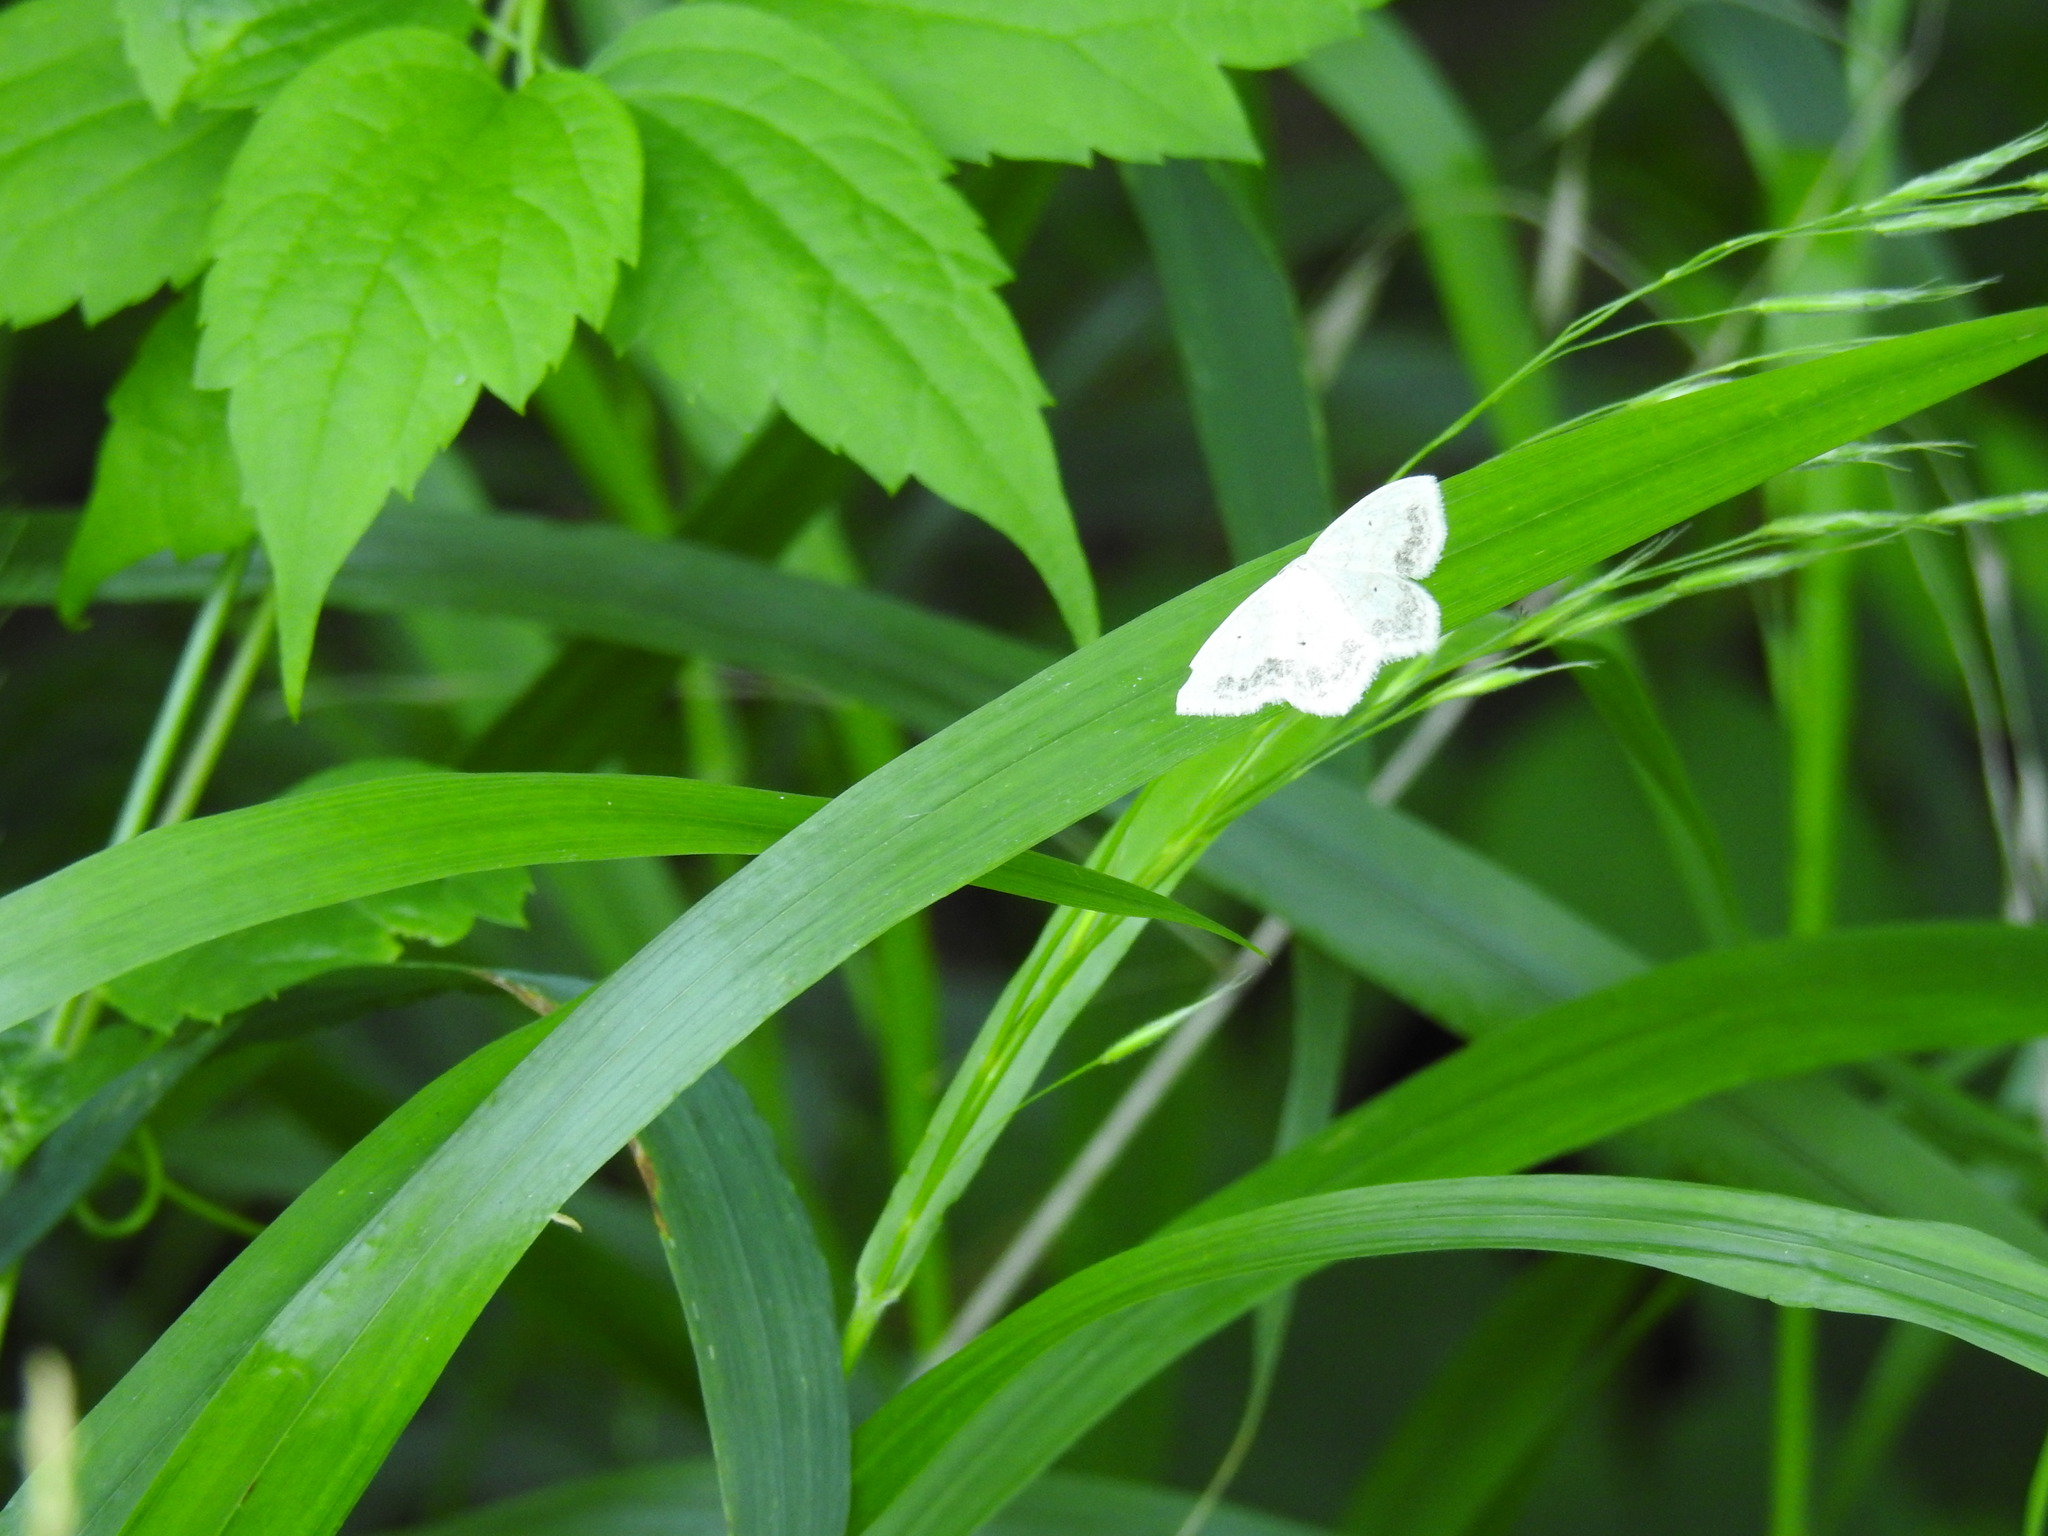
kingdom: Animalia
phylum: Arthropoda
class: Insecta
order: Lepidoptera
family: Geometridae
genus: Scopula
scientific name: Scopula limboundata
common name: Large lace border
